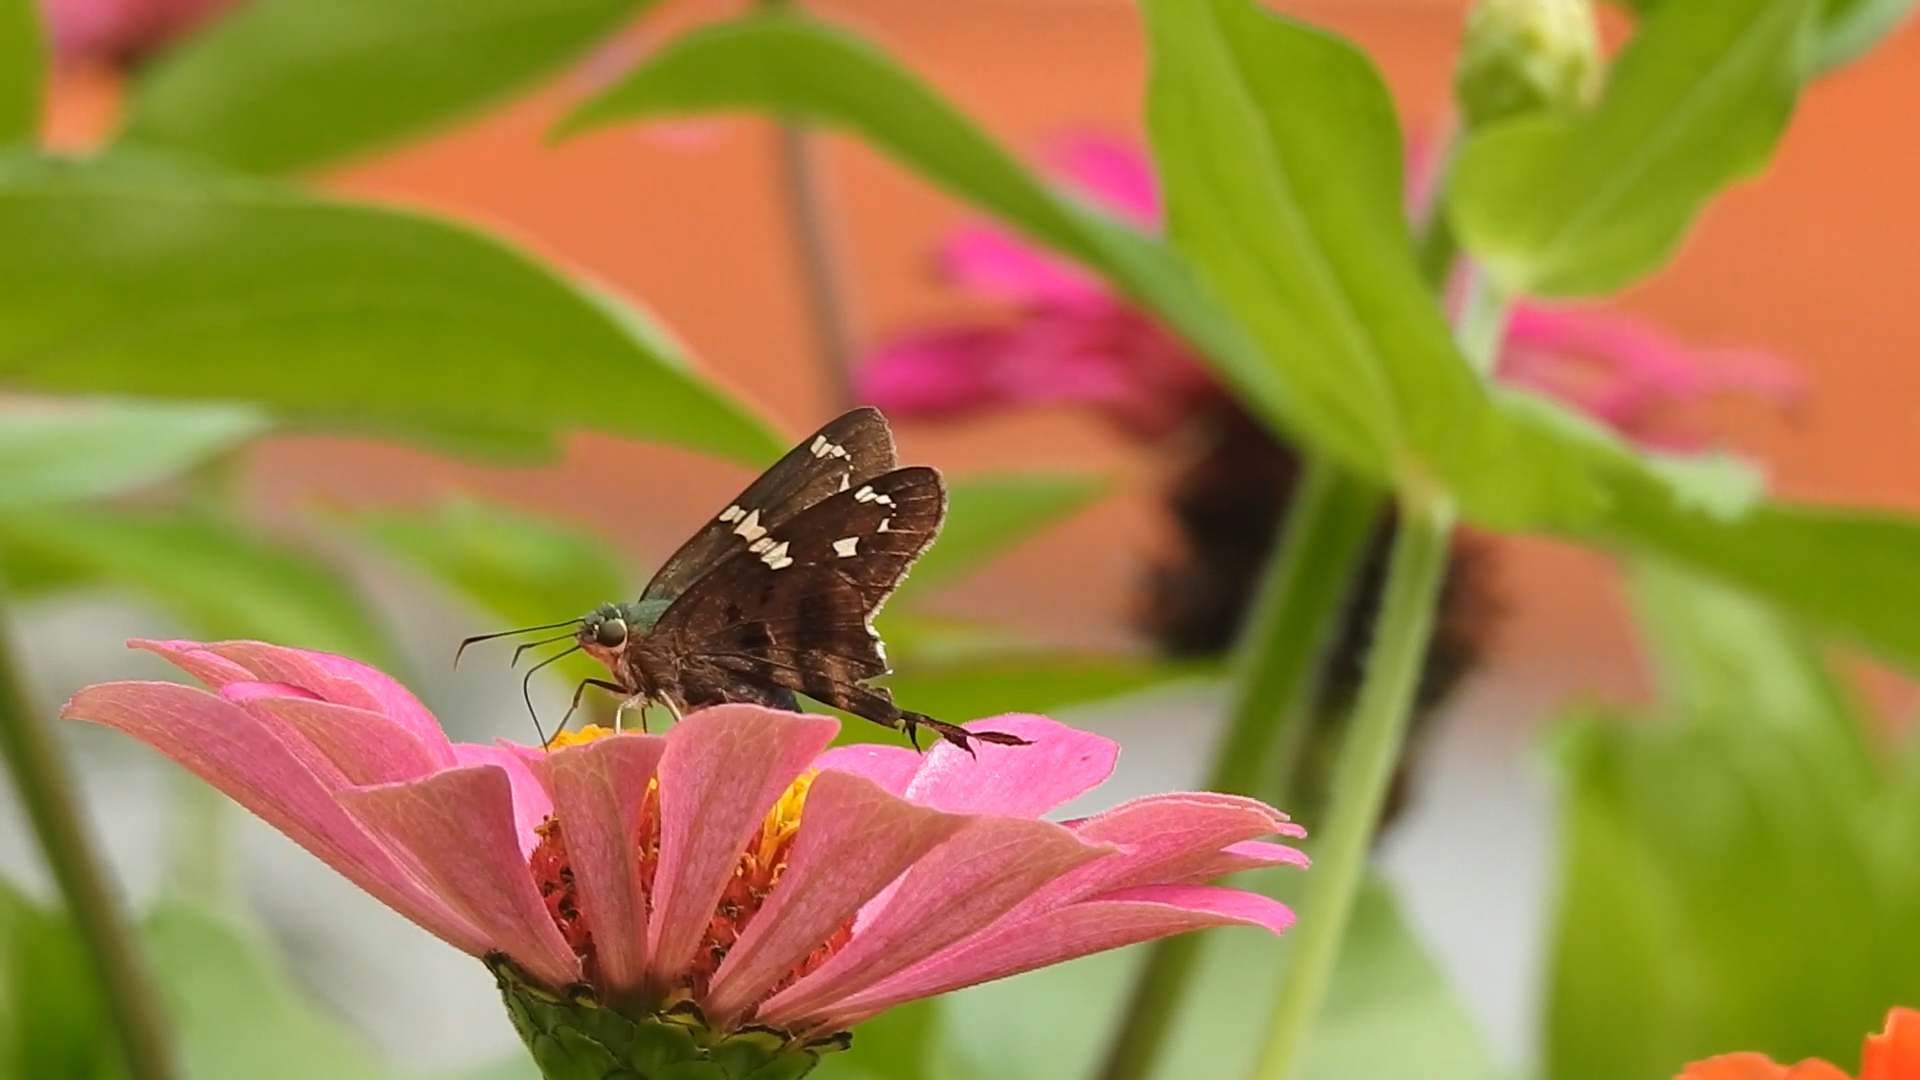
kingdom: Animalia
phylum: Arthropoda
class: Insecta
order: Lepidoptera
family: Hesperiidae
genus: Urbanus
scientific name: Urbanus proteus
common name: Long-tailed skipper
